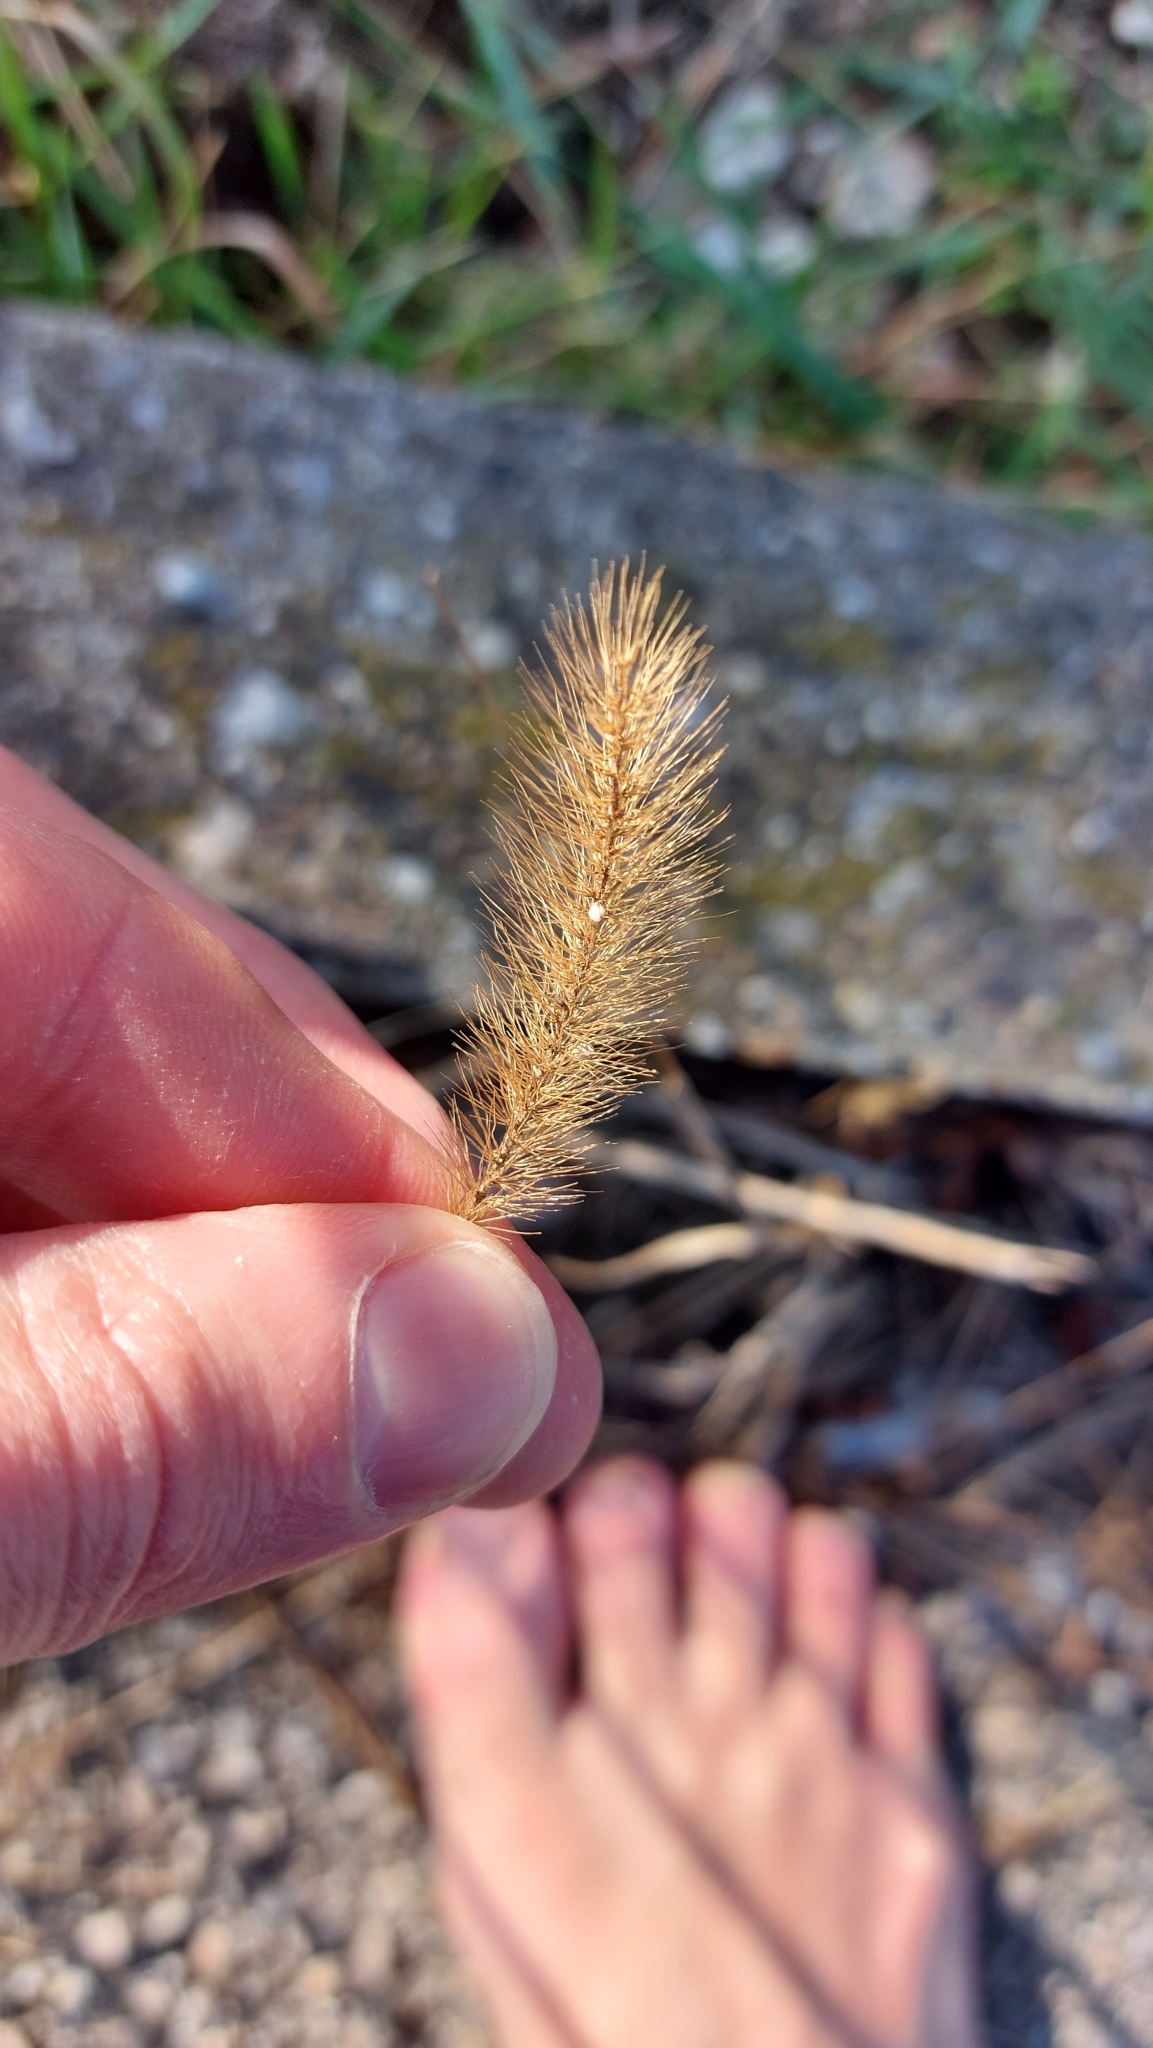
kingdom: Plantae
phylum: Tracheophyta
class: Liliopsida
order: Poales
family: Poaceae
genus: Setaria
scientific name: Setaria viridis
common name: Green bristlegrass
